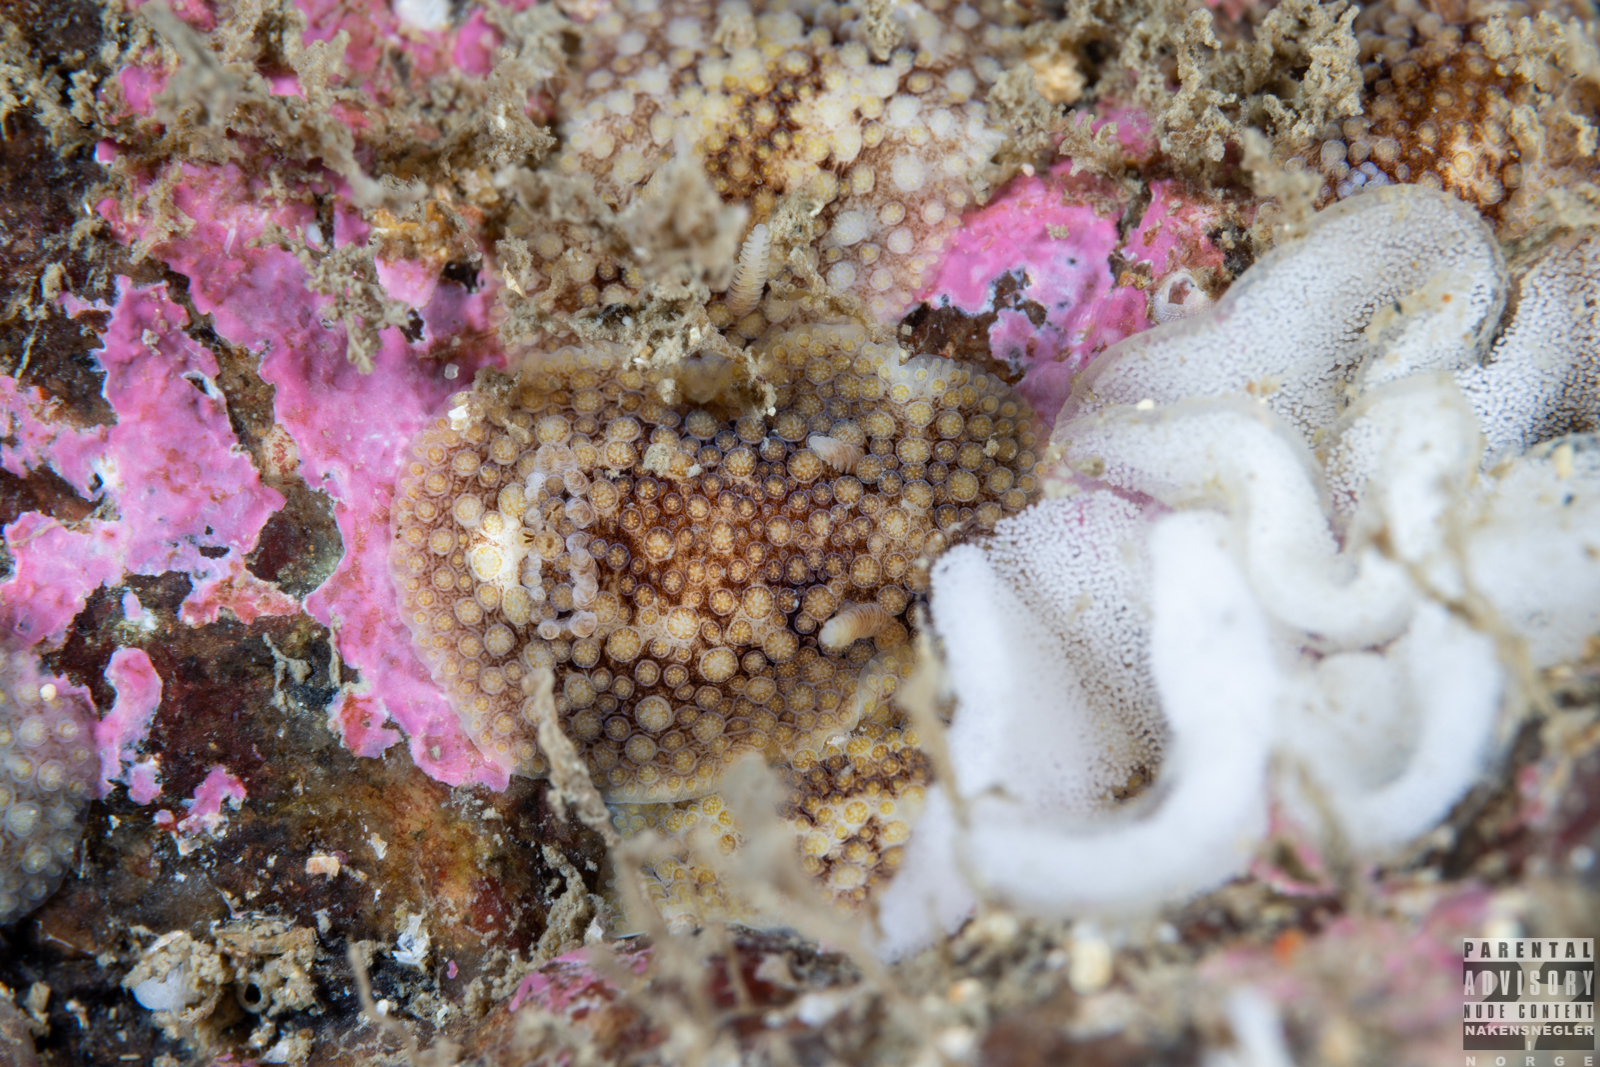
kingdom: Animalia
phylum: Mollusca
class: Gastropoda
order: Nudibranchia
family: Onchidorididae
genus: Onchidoris
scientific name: Onchidoris bilamellata
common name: Barnacle-eating onchidoris
